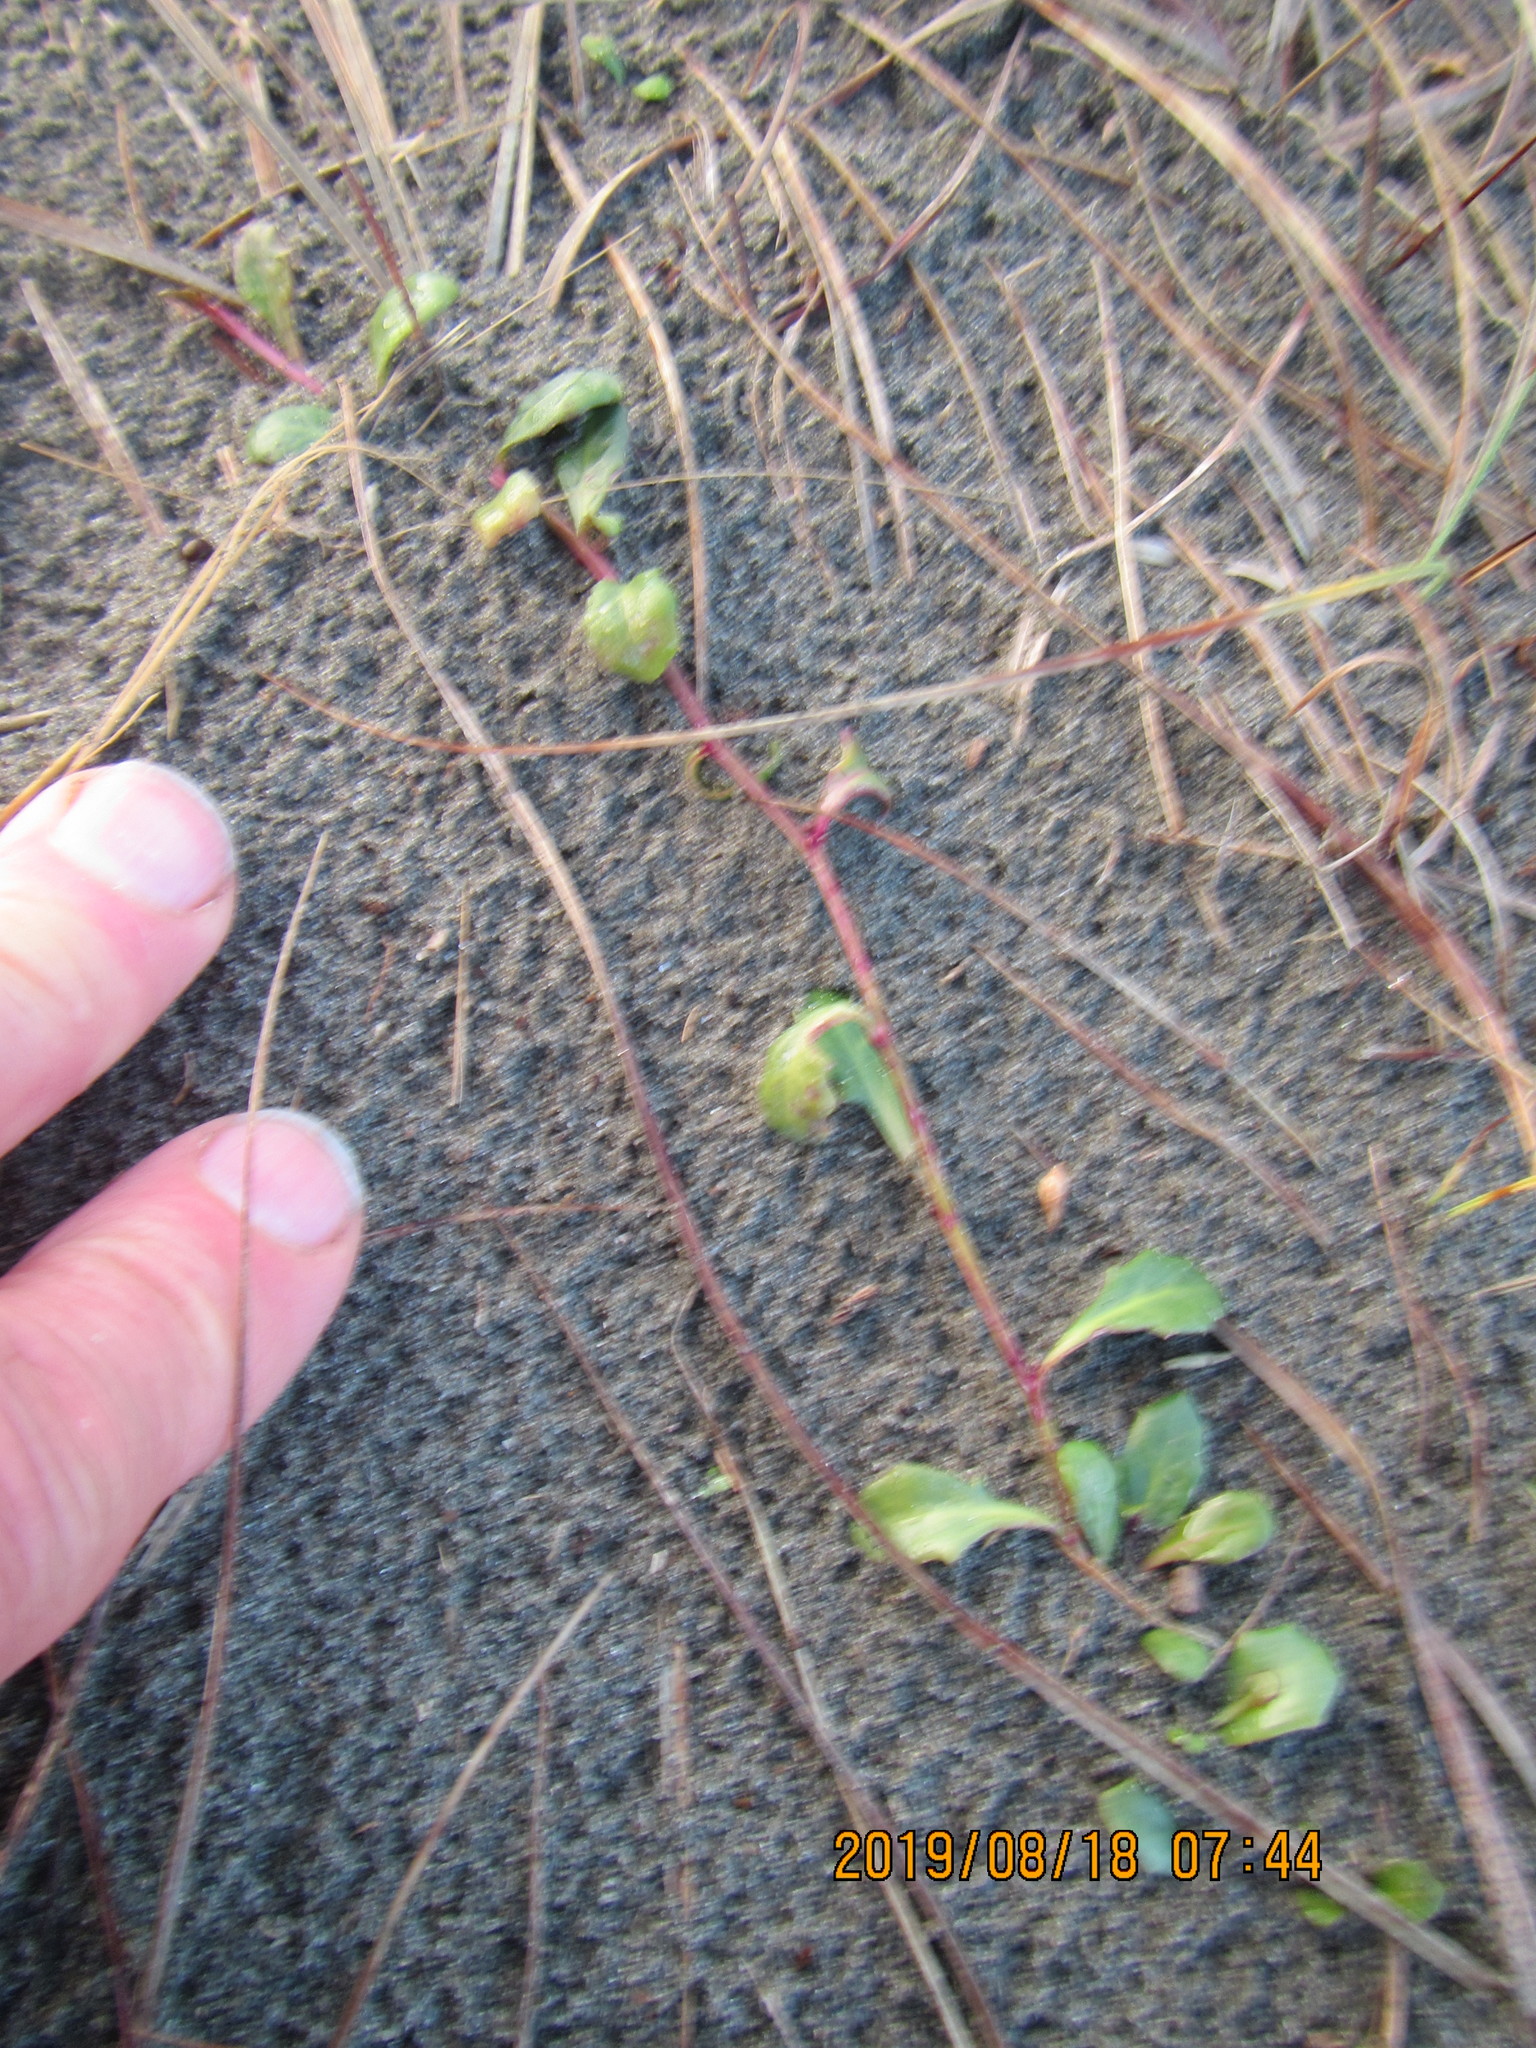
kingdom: Plantae
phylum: Tracheophyta
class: Magnoliopsida
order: Asterales
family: Campanulaceae
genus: Lobelia
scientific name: Lobelia anceps
